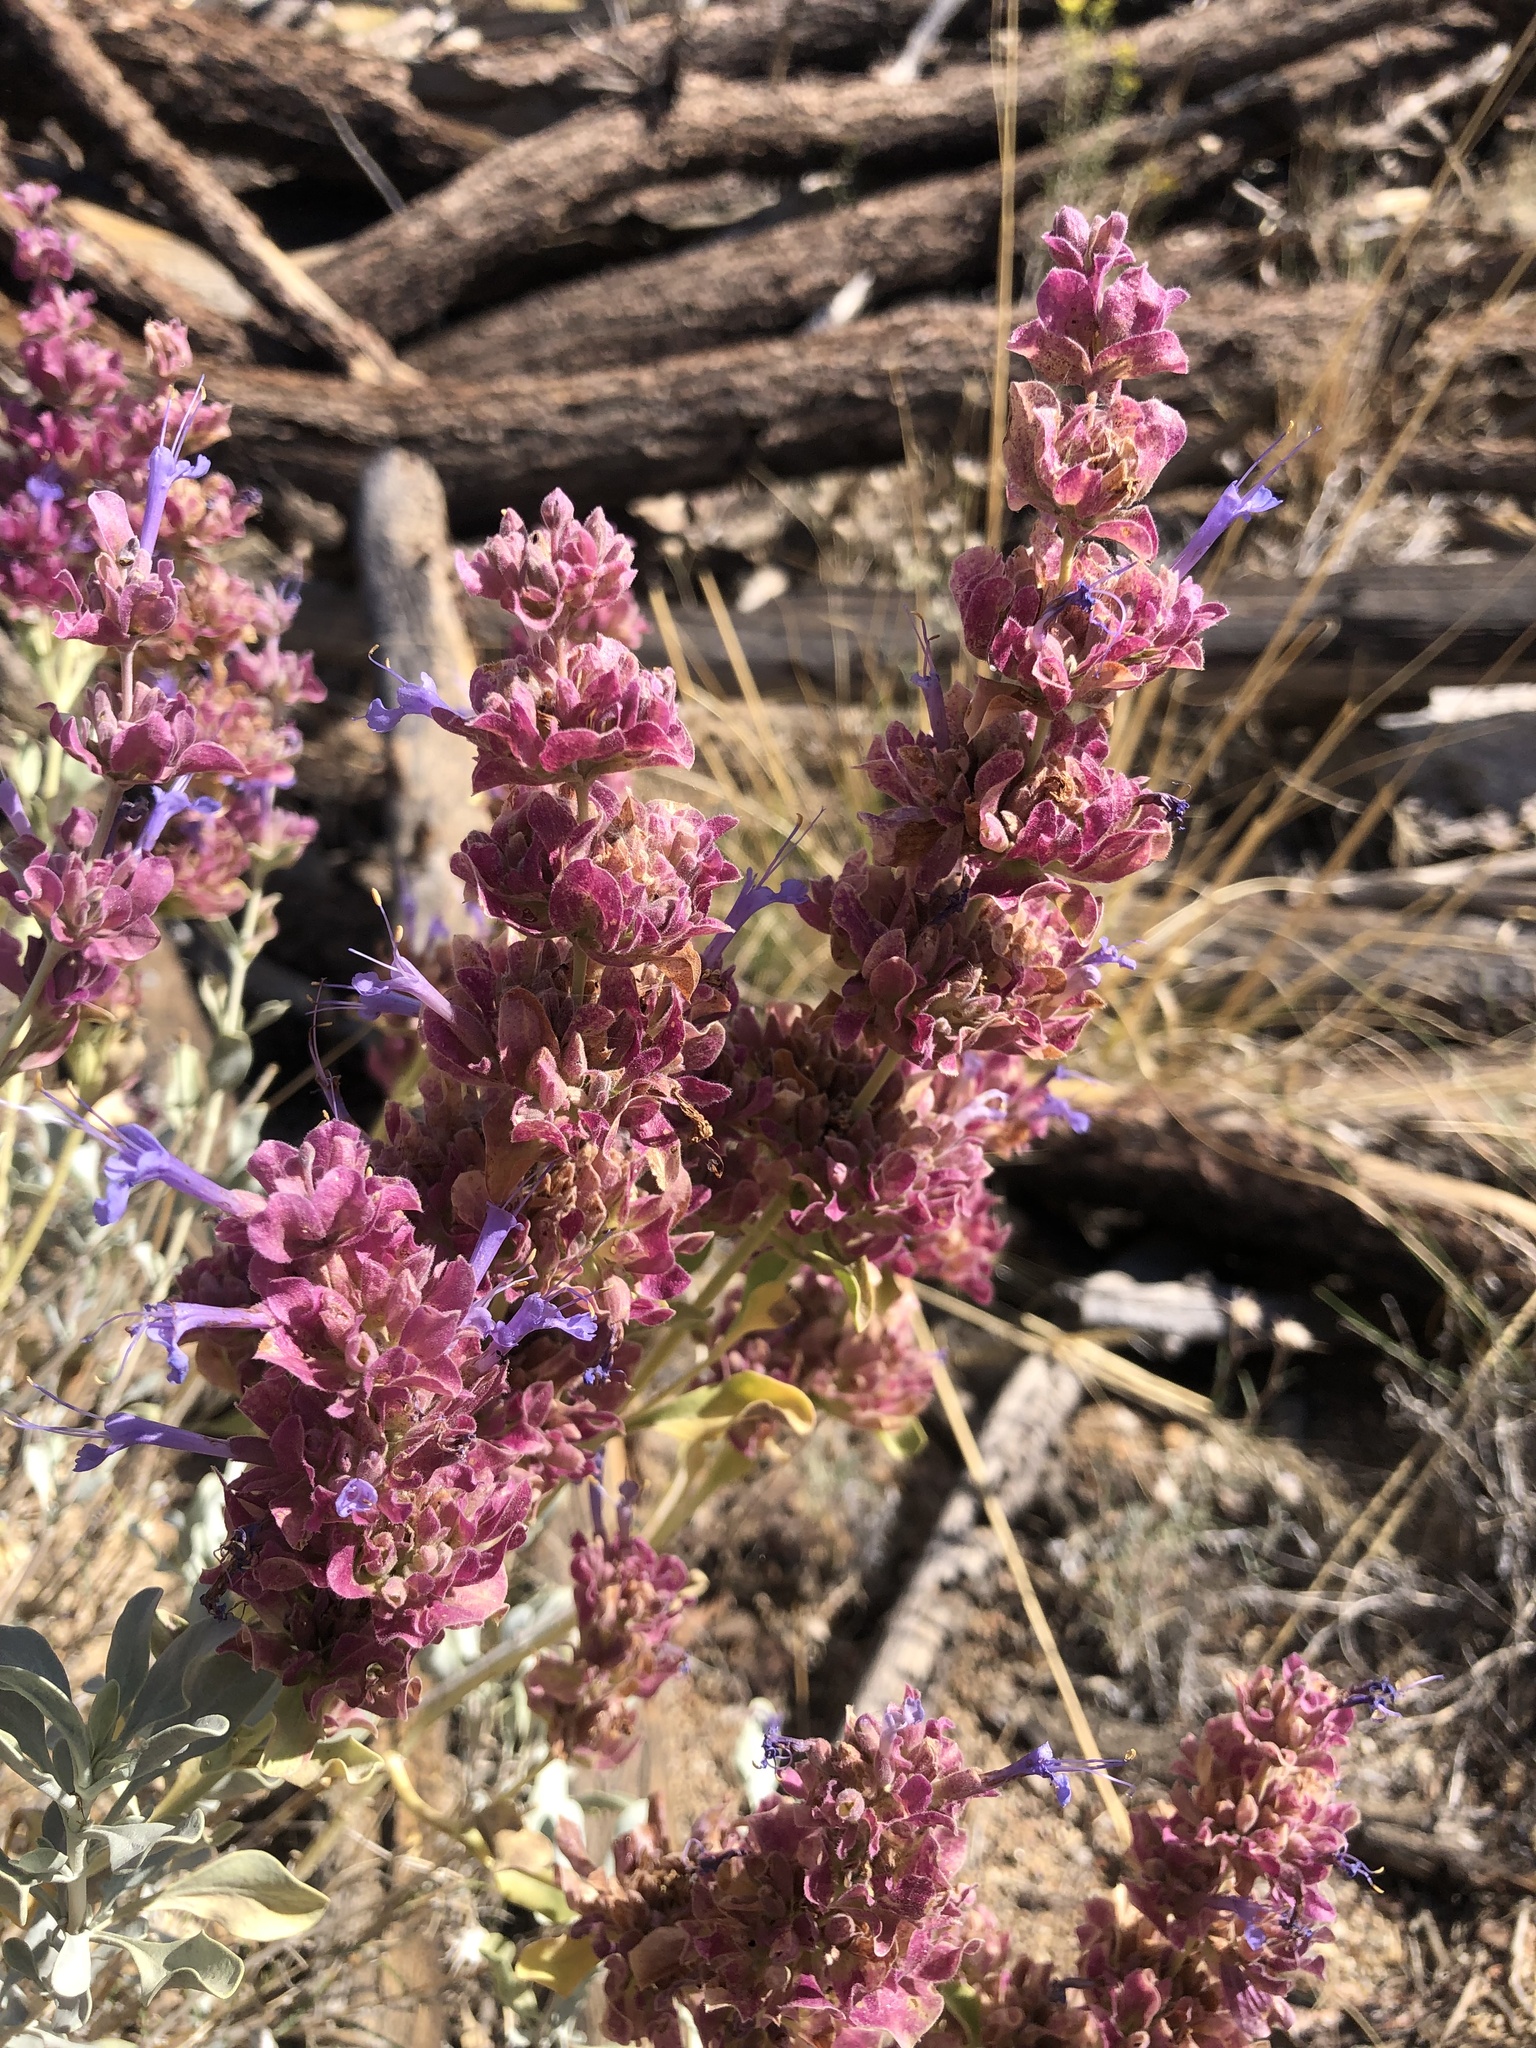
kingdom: Plantae
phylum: Tracheophyta
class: Magnoliopsida
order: Lamiales
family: Lamiaceae
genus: Salvia
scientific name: Salvia pachyphylla
